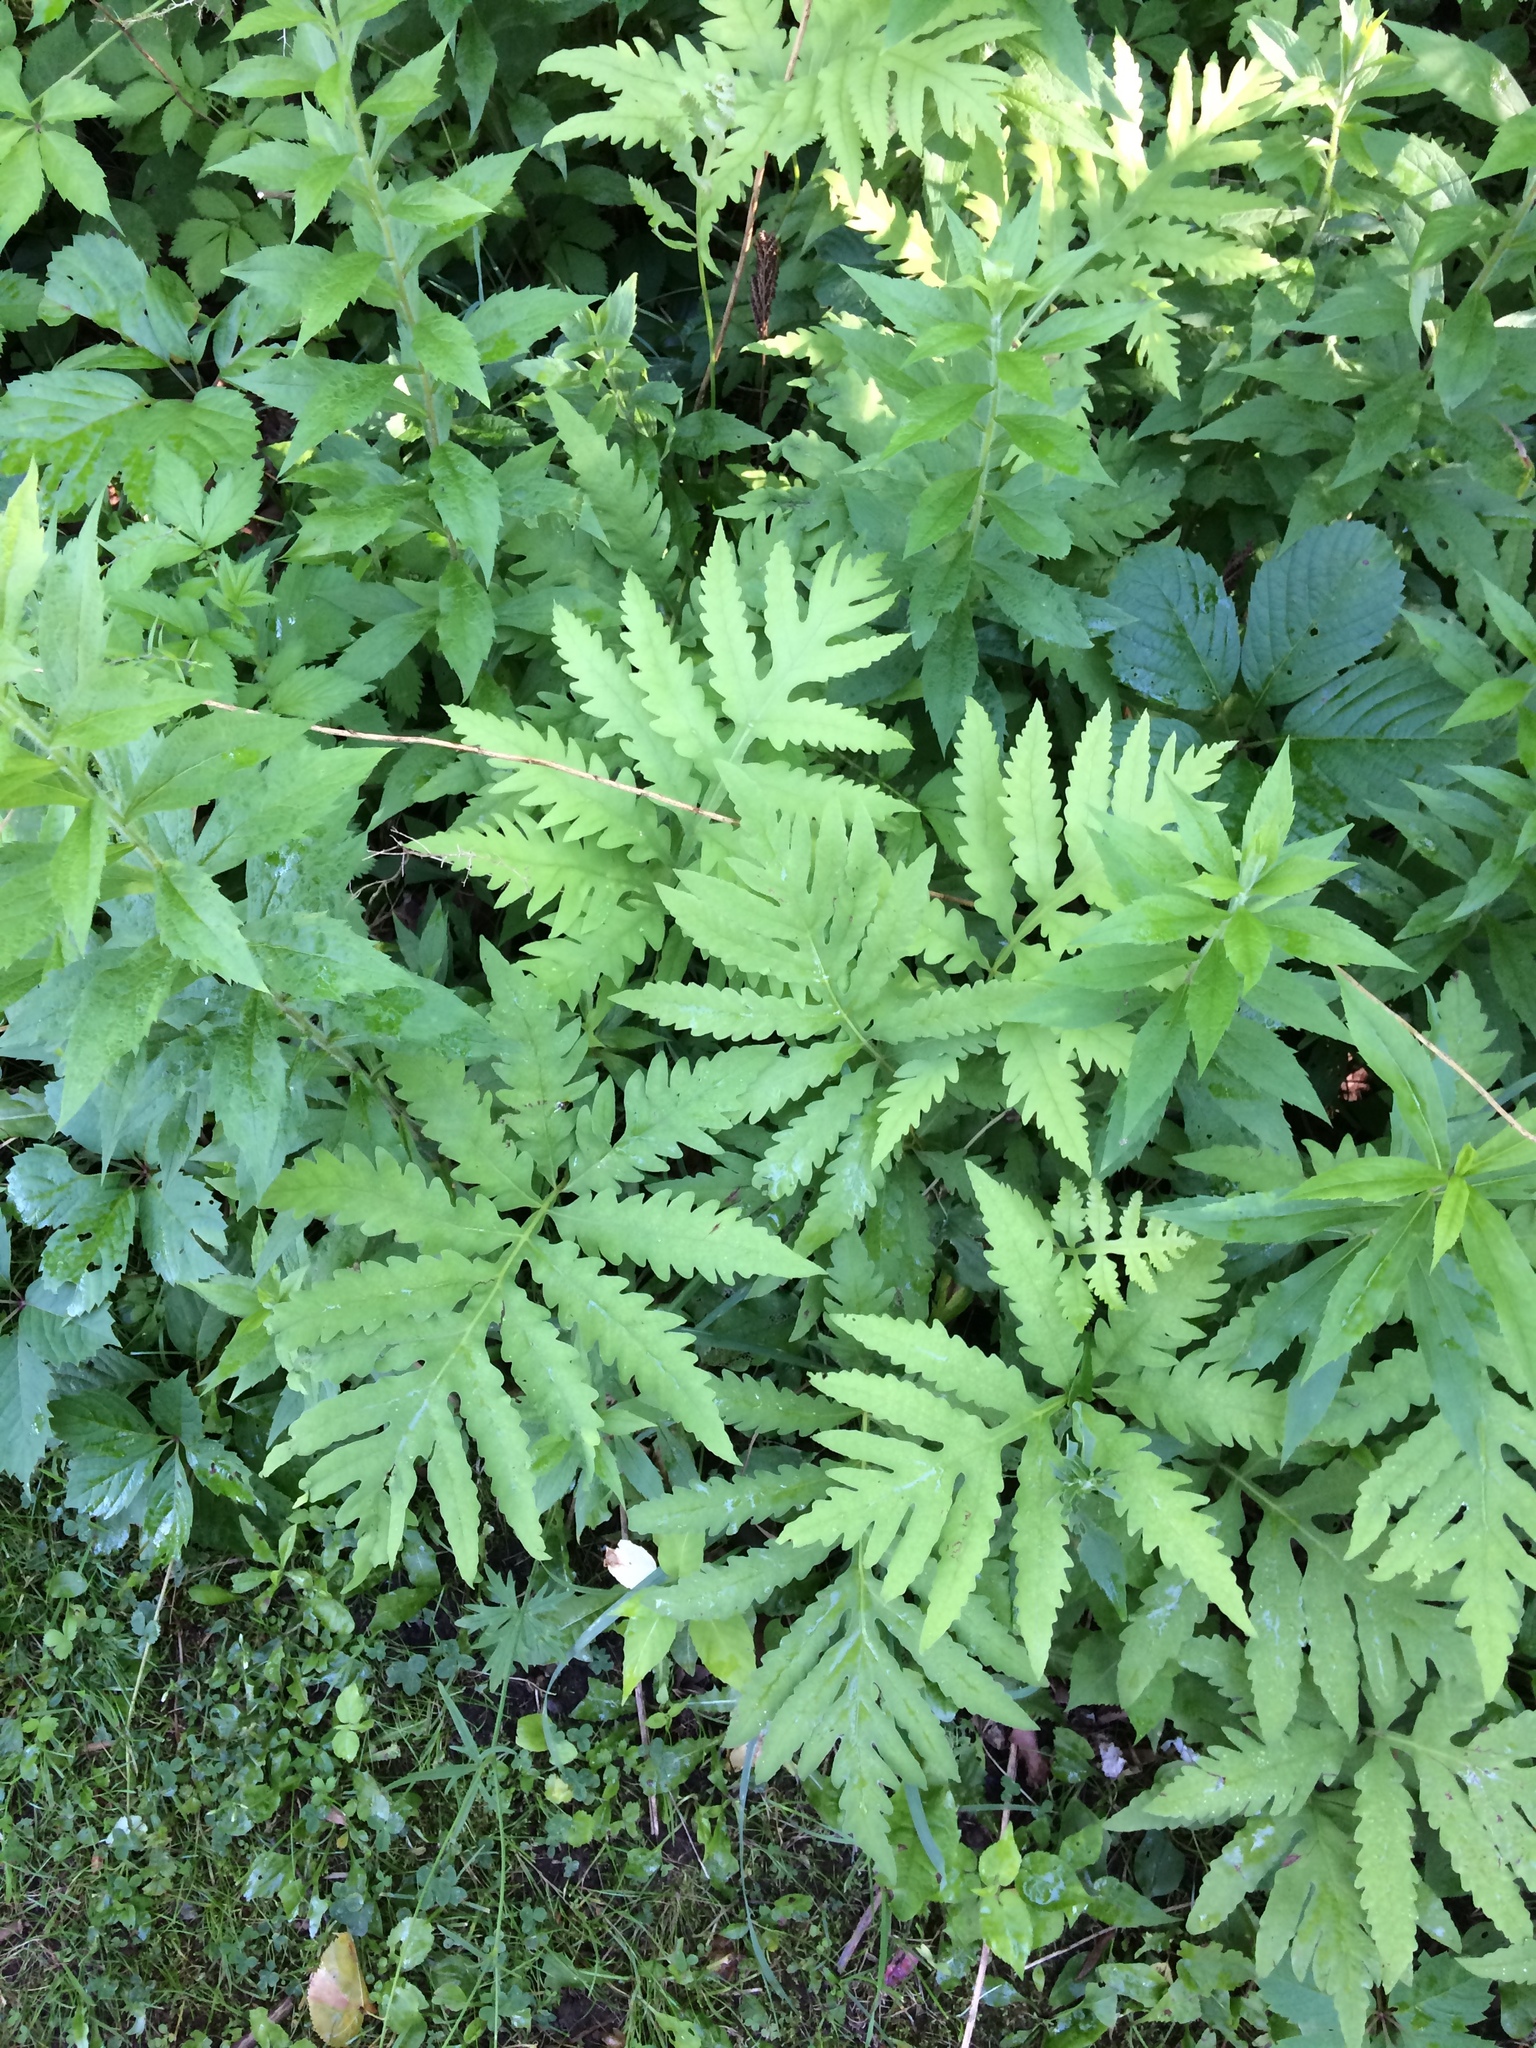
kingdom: Plantae
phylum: Tracheophyta
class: Polypodiopsida
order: Polypodiales
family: Onocleaceae
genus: Onoclea
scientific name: Onoclea sensibilis
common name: Sensitive fern
